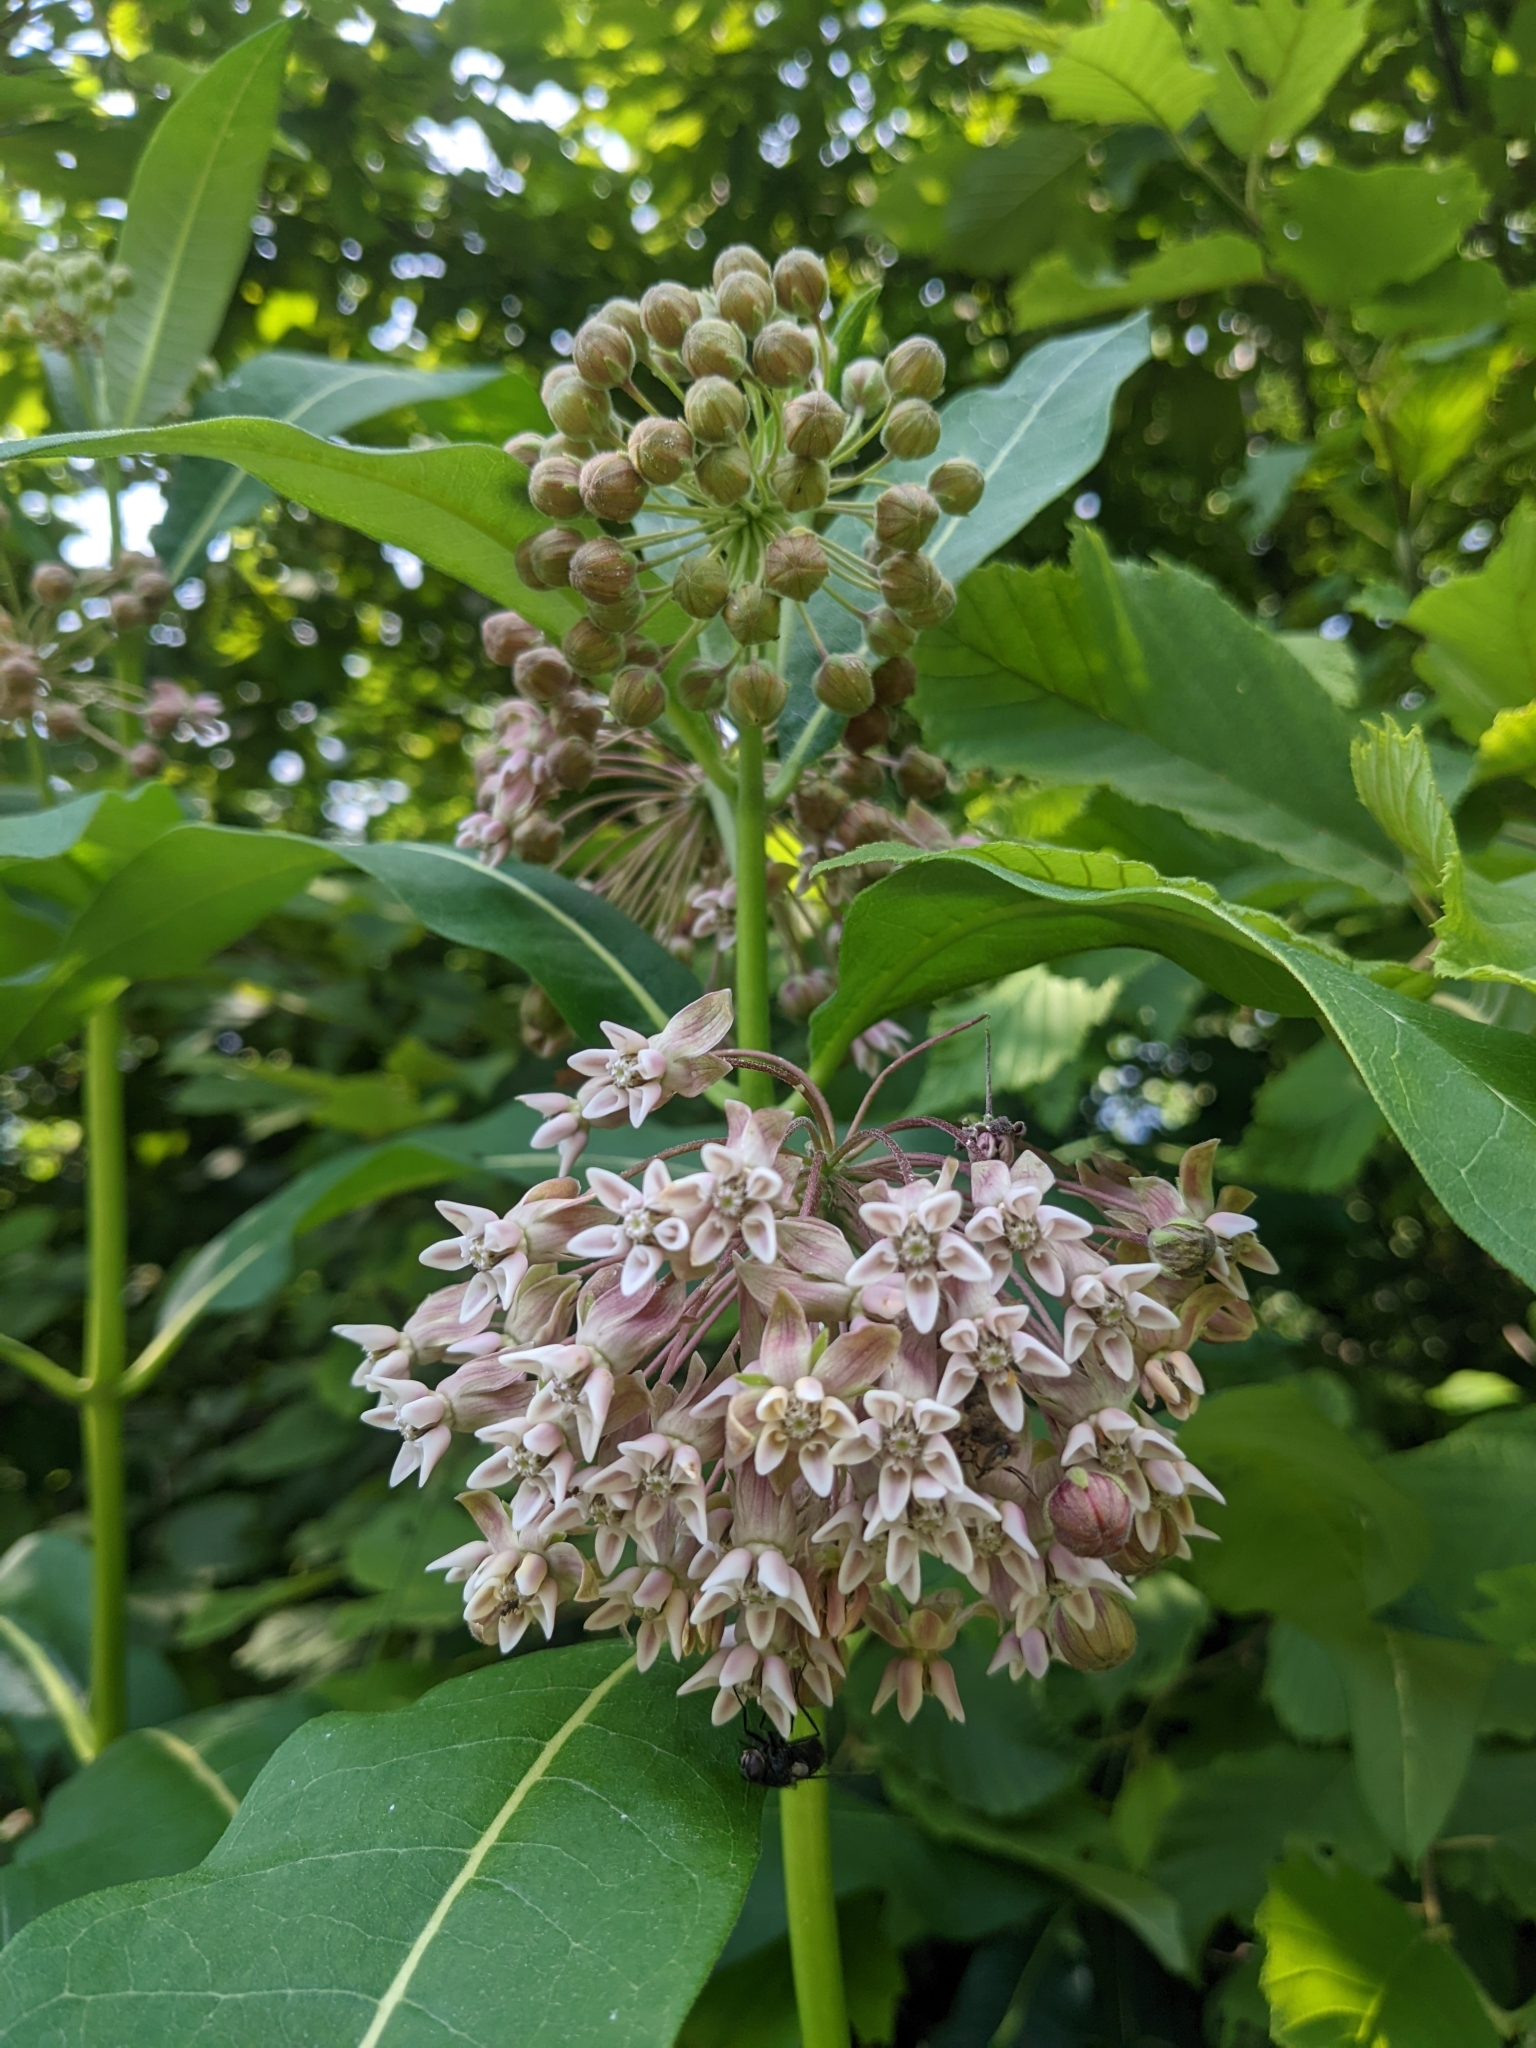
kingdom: Plantae
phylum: Tracheophyta
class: Magnoliopsida
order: Gentianales
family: Apocynaceae
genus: Asclepias
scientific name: Asclepias syriaca
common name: Common milkweed
